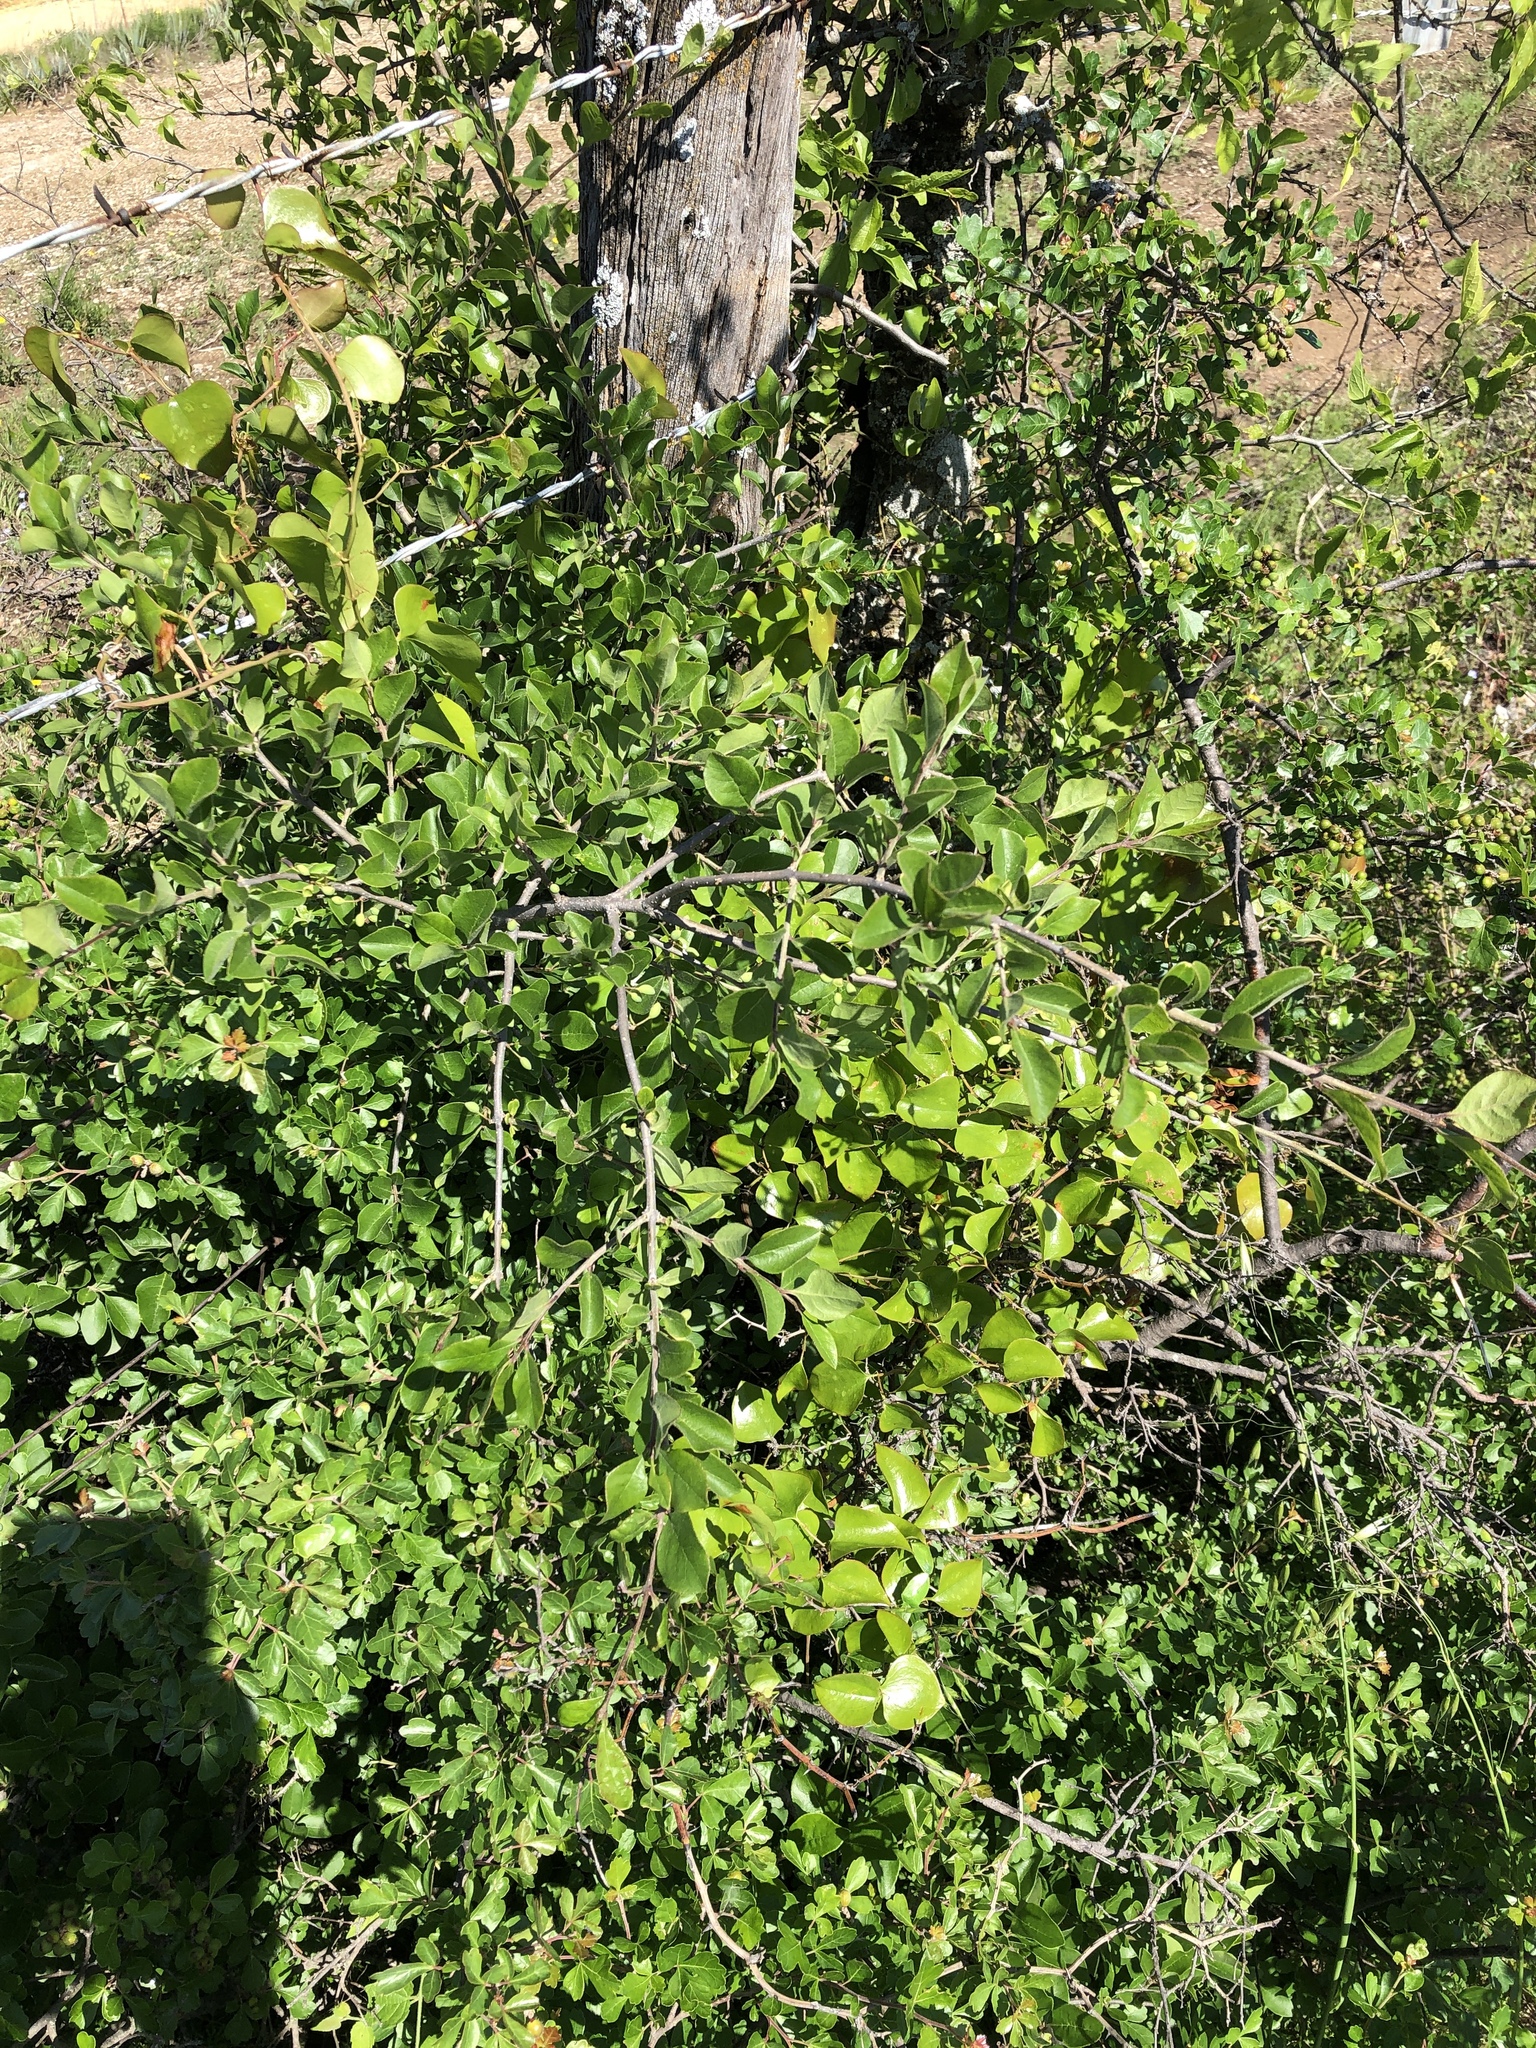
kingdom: Plantae
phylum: Tracheophyta
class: Magnoliopsida
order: Lamiales
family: Oleaceae
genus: Forestiera
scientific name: Forestiera pubescens
